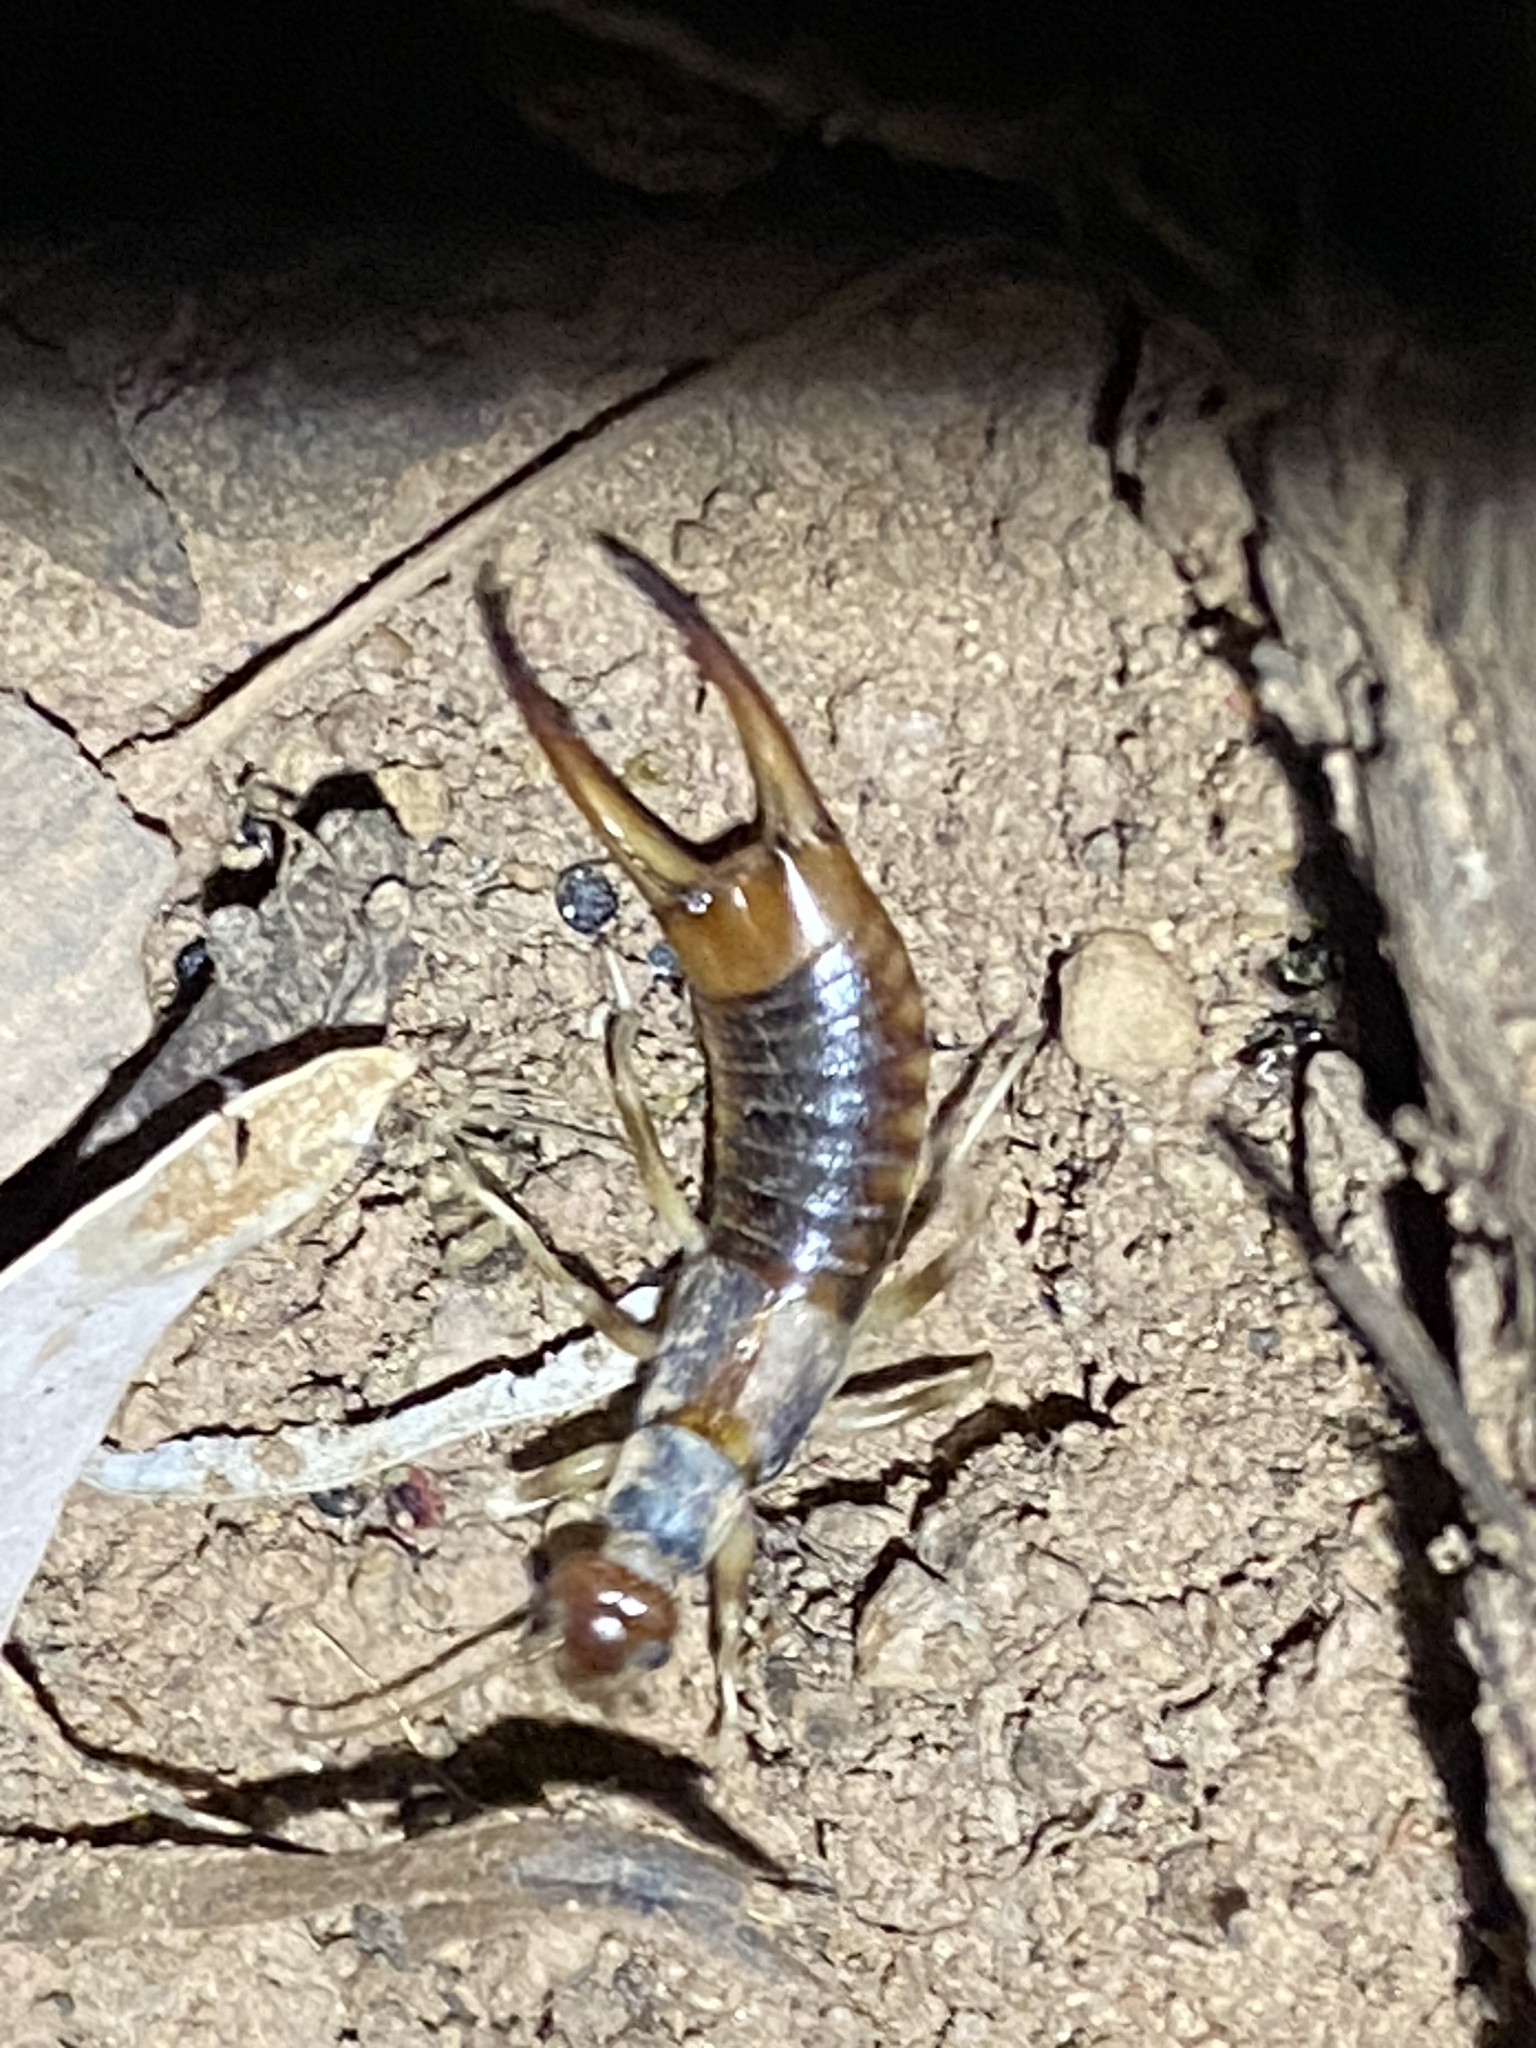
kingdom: Animalia
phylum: Arthropoda
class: Insecta
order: Dermaptera
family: Labiduridae
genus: Labidura
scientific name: Labidura riparia
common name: Striped earwig
